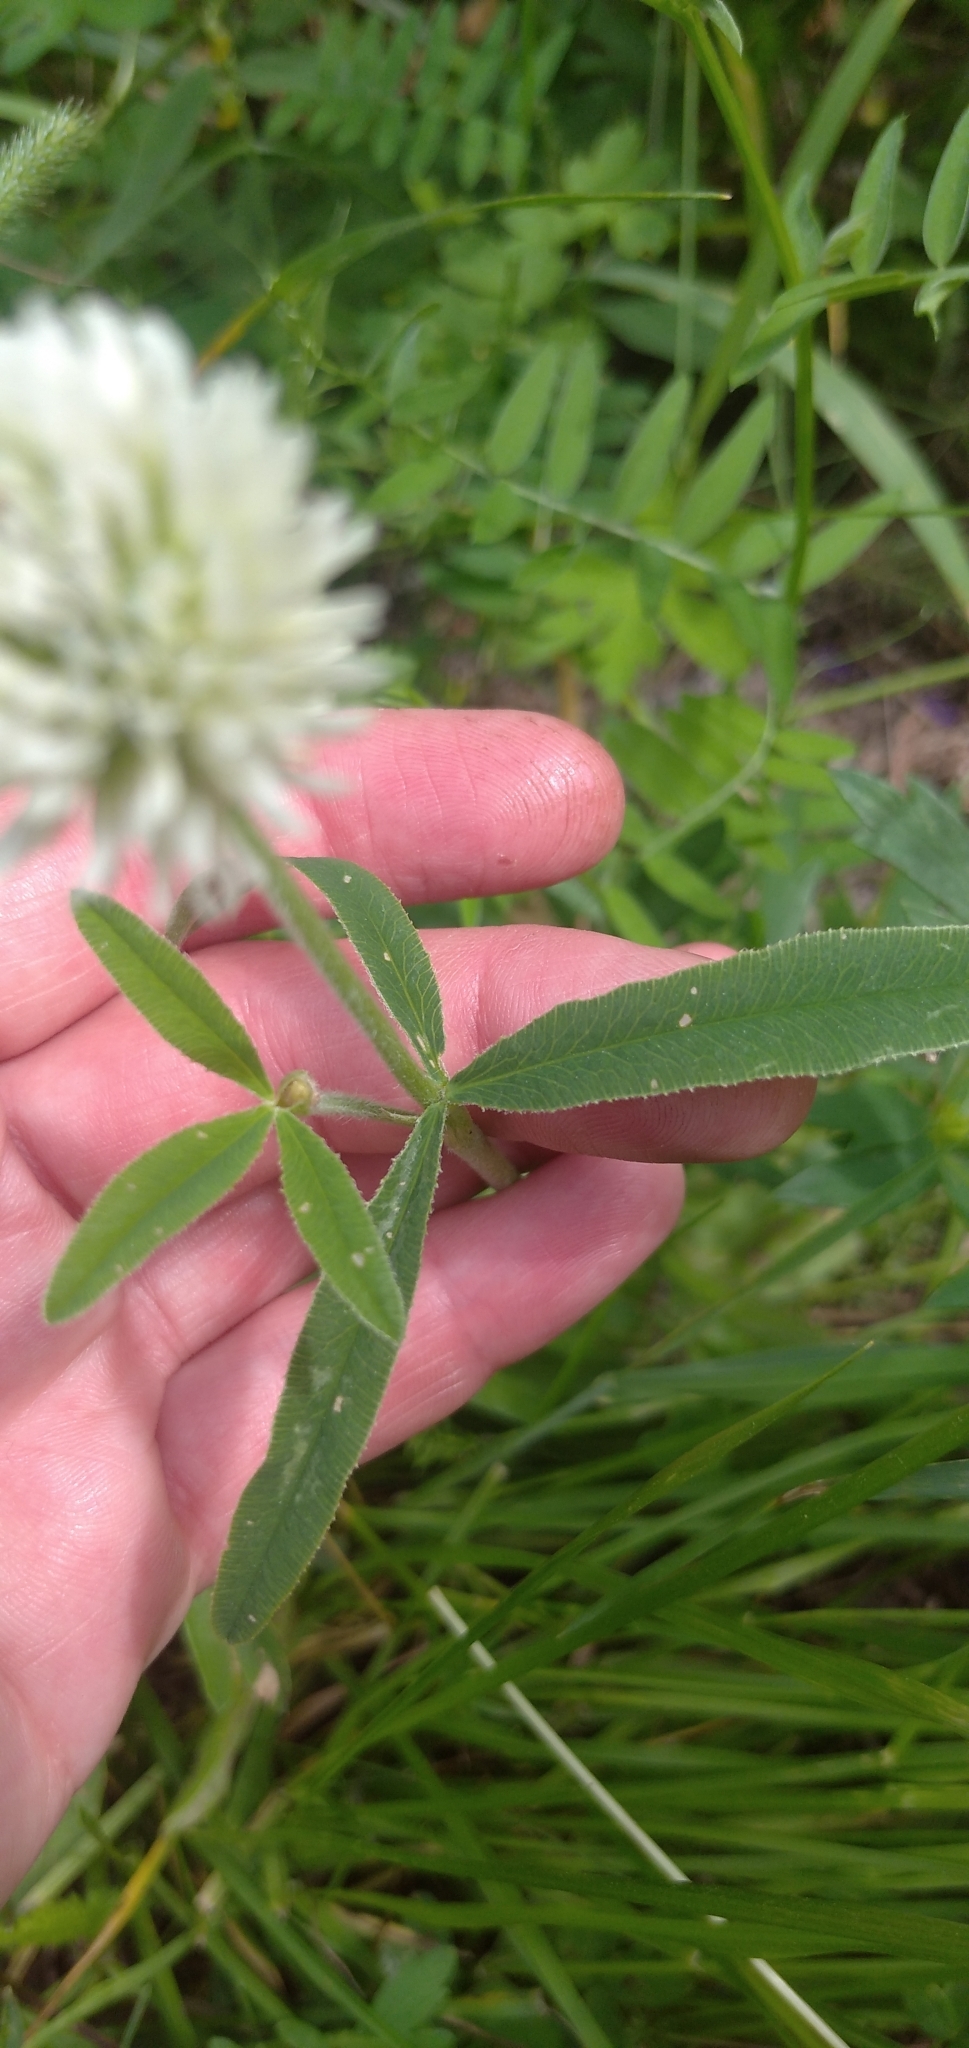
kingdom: Plantae
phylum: Tracheophyta
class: Magnoliopsida
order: Fabales
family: Fabaceae
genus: Trifolium
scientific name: Trifolium montanum
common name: Mountain clover
